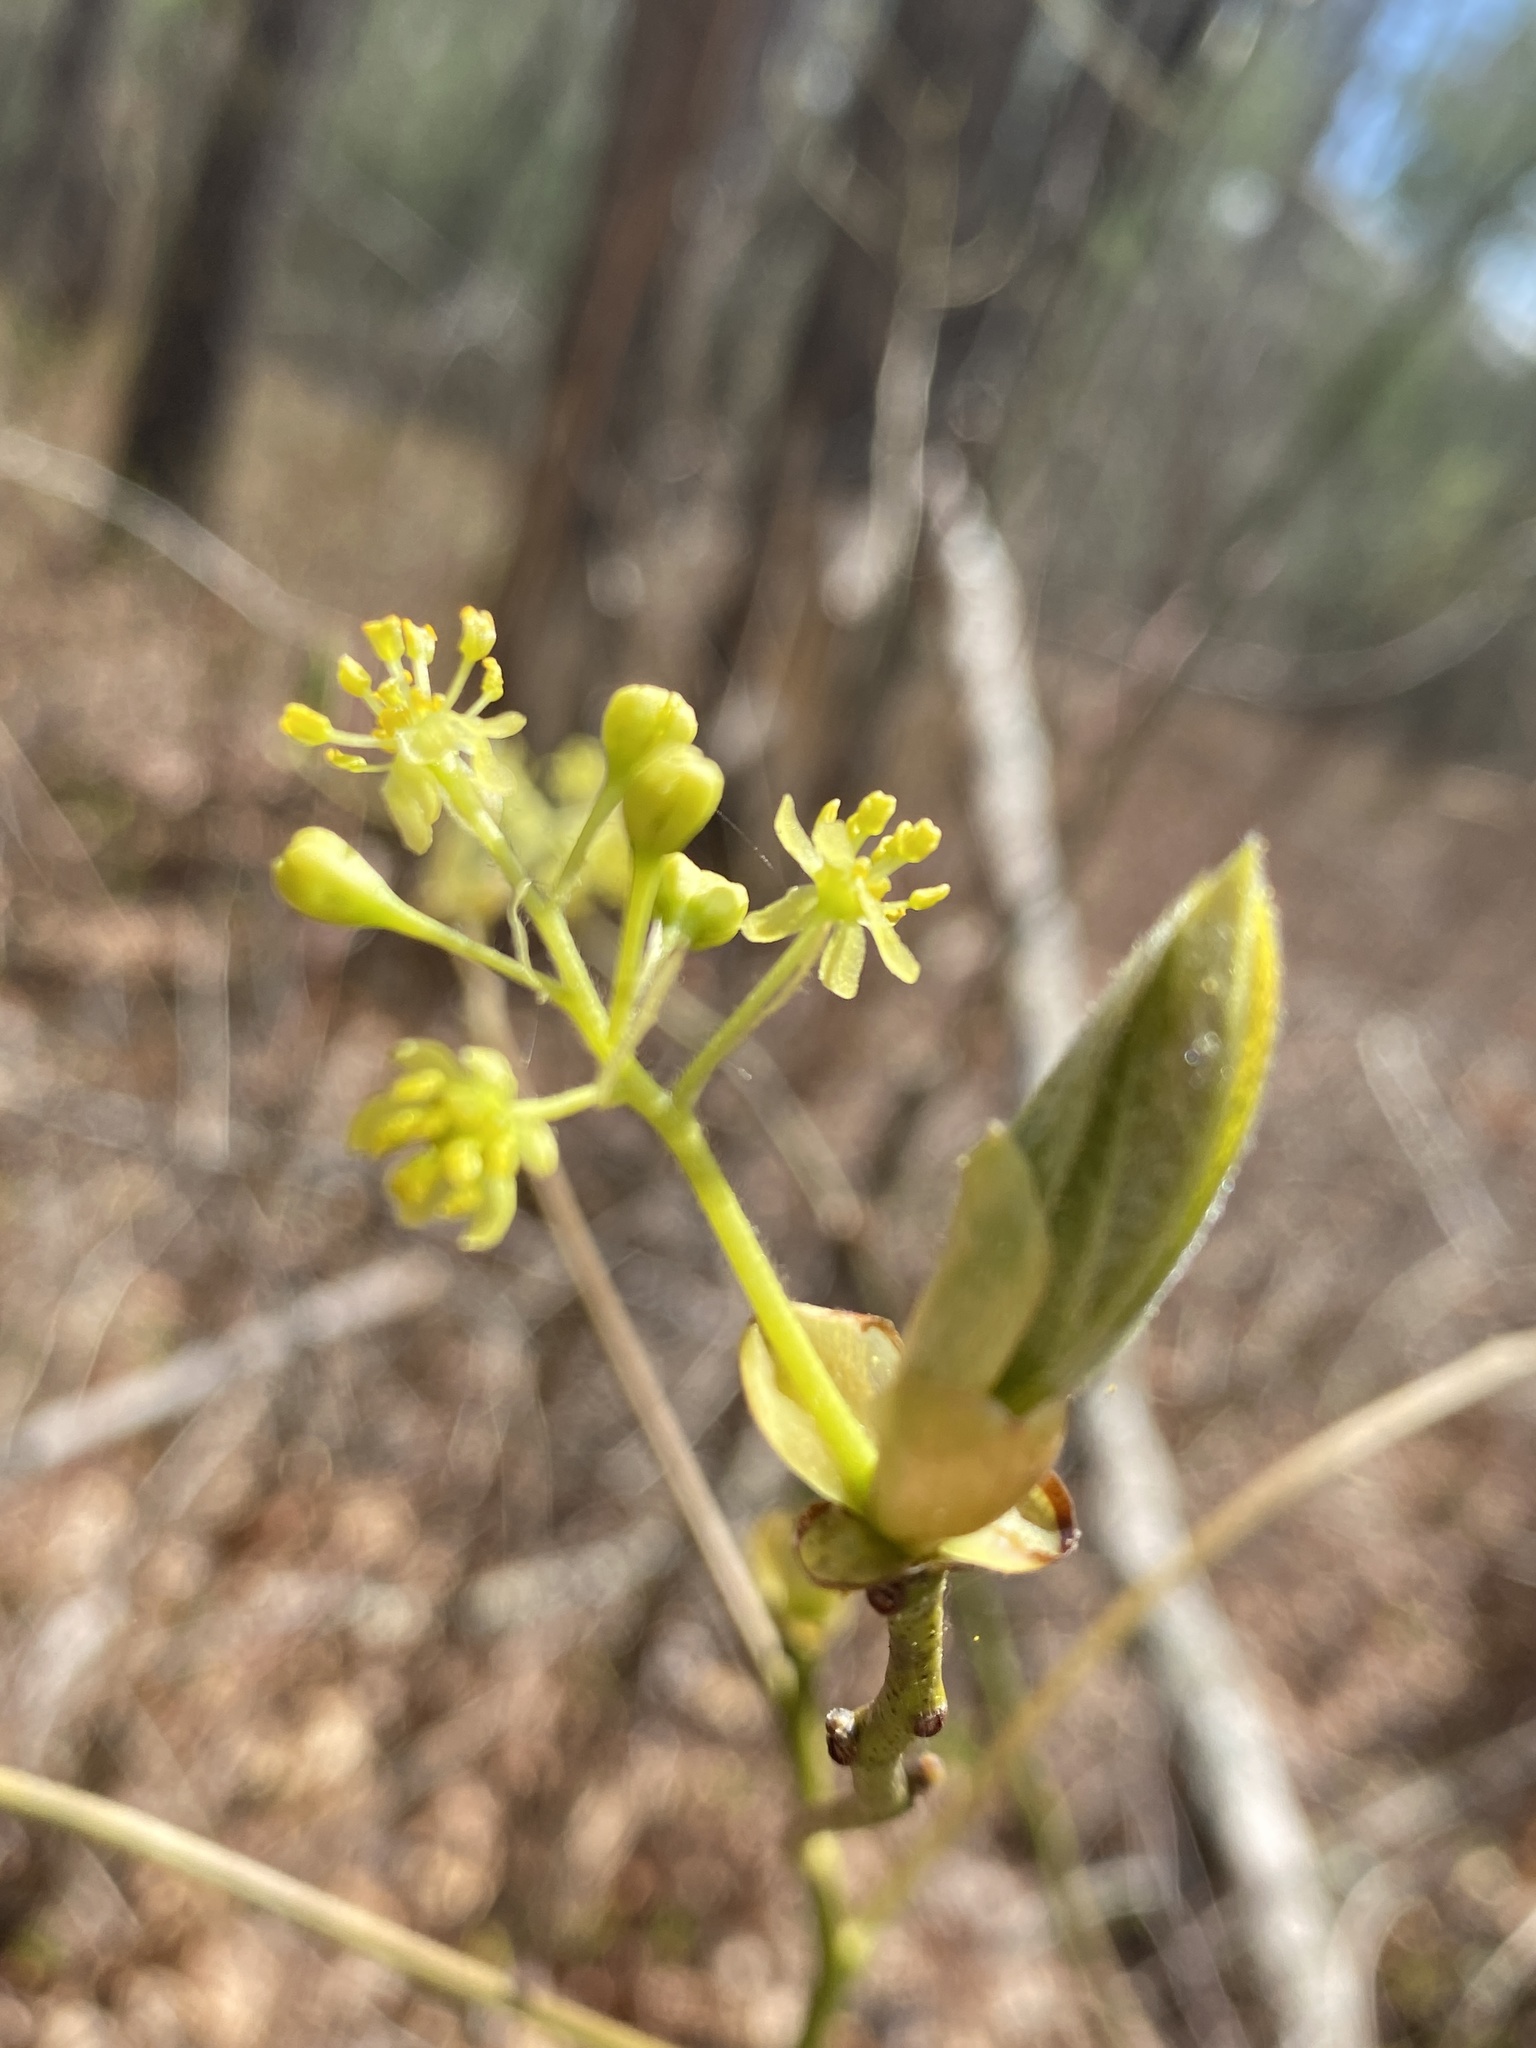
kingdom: Plantae
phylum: Tracheophyta
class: Magnoliopsida
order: Laurales
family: Lauraceae
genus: Sassafras
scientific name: Sassafras albidum
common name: Sassafras
